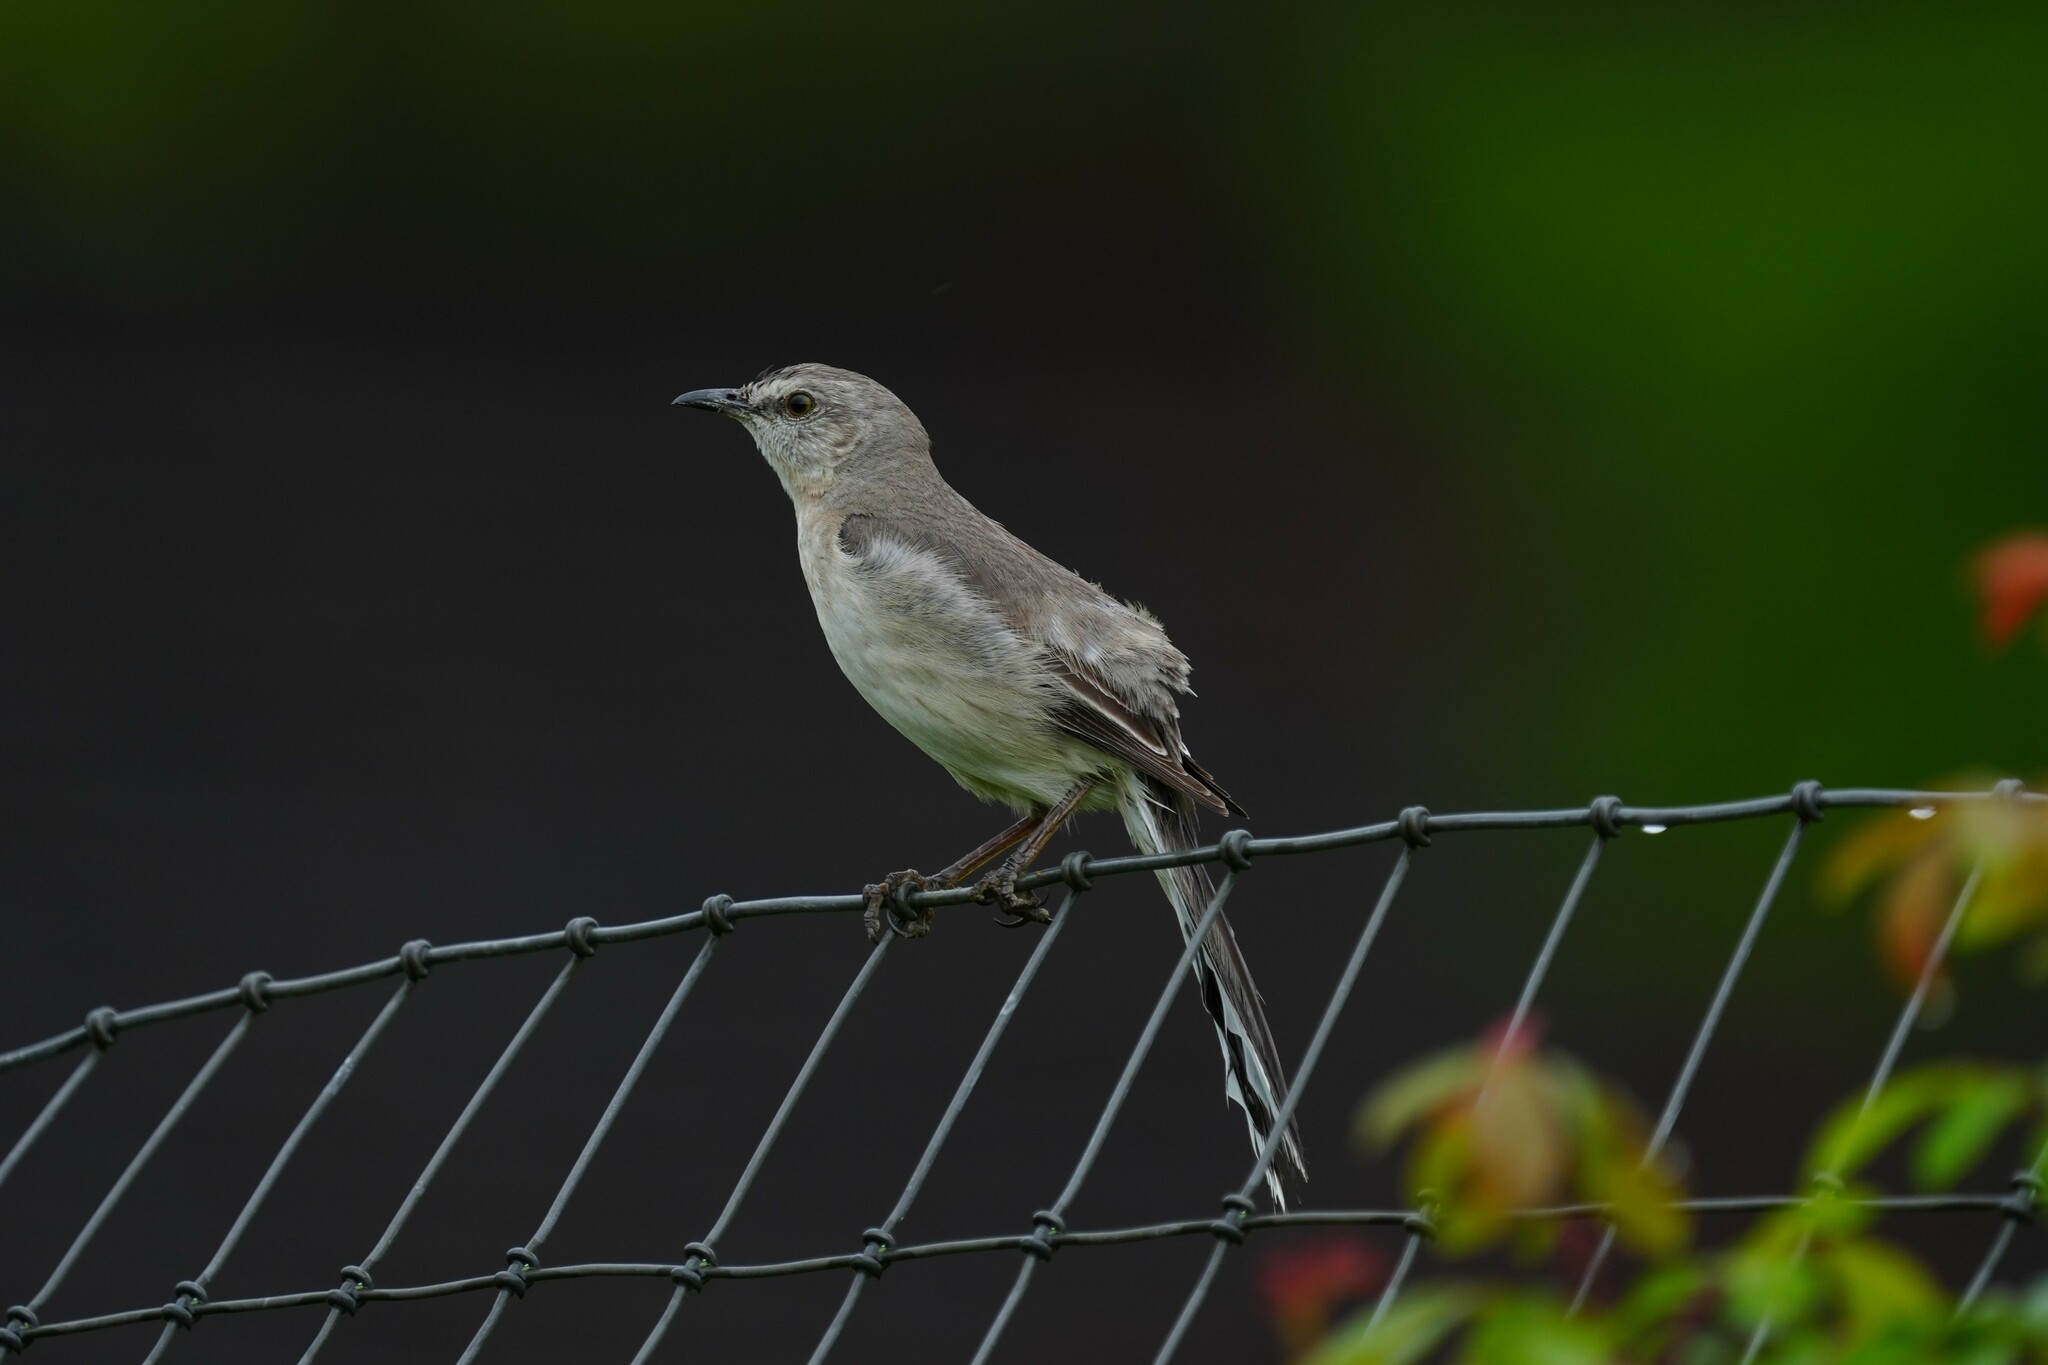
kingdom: Animalia
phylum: Chordata
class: Aves
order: Passeriformes
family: Mimidae
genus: Mimus
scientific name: Mimus polyglottos
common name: Northern mockingbird
